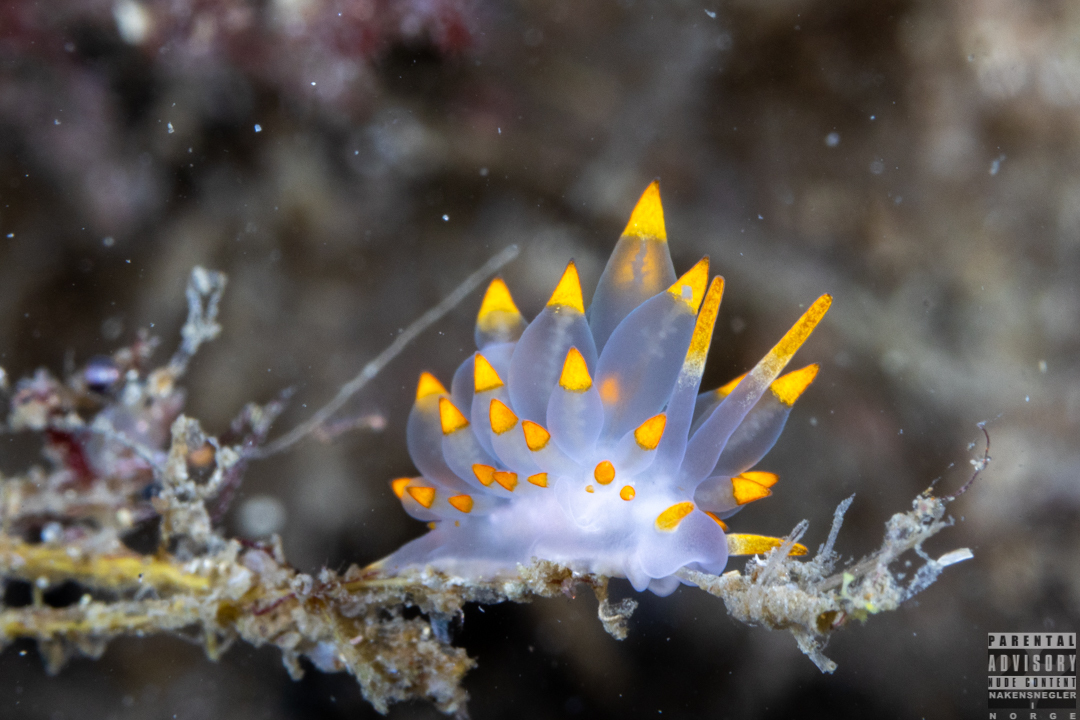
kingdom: Animalia
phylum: Mollusca
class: Gastropoda
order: Nudibranchia
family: Eubranchidae
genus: Amphorina
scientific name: Amphorina farrani
